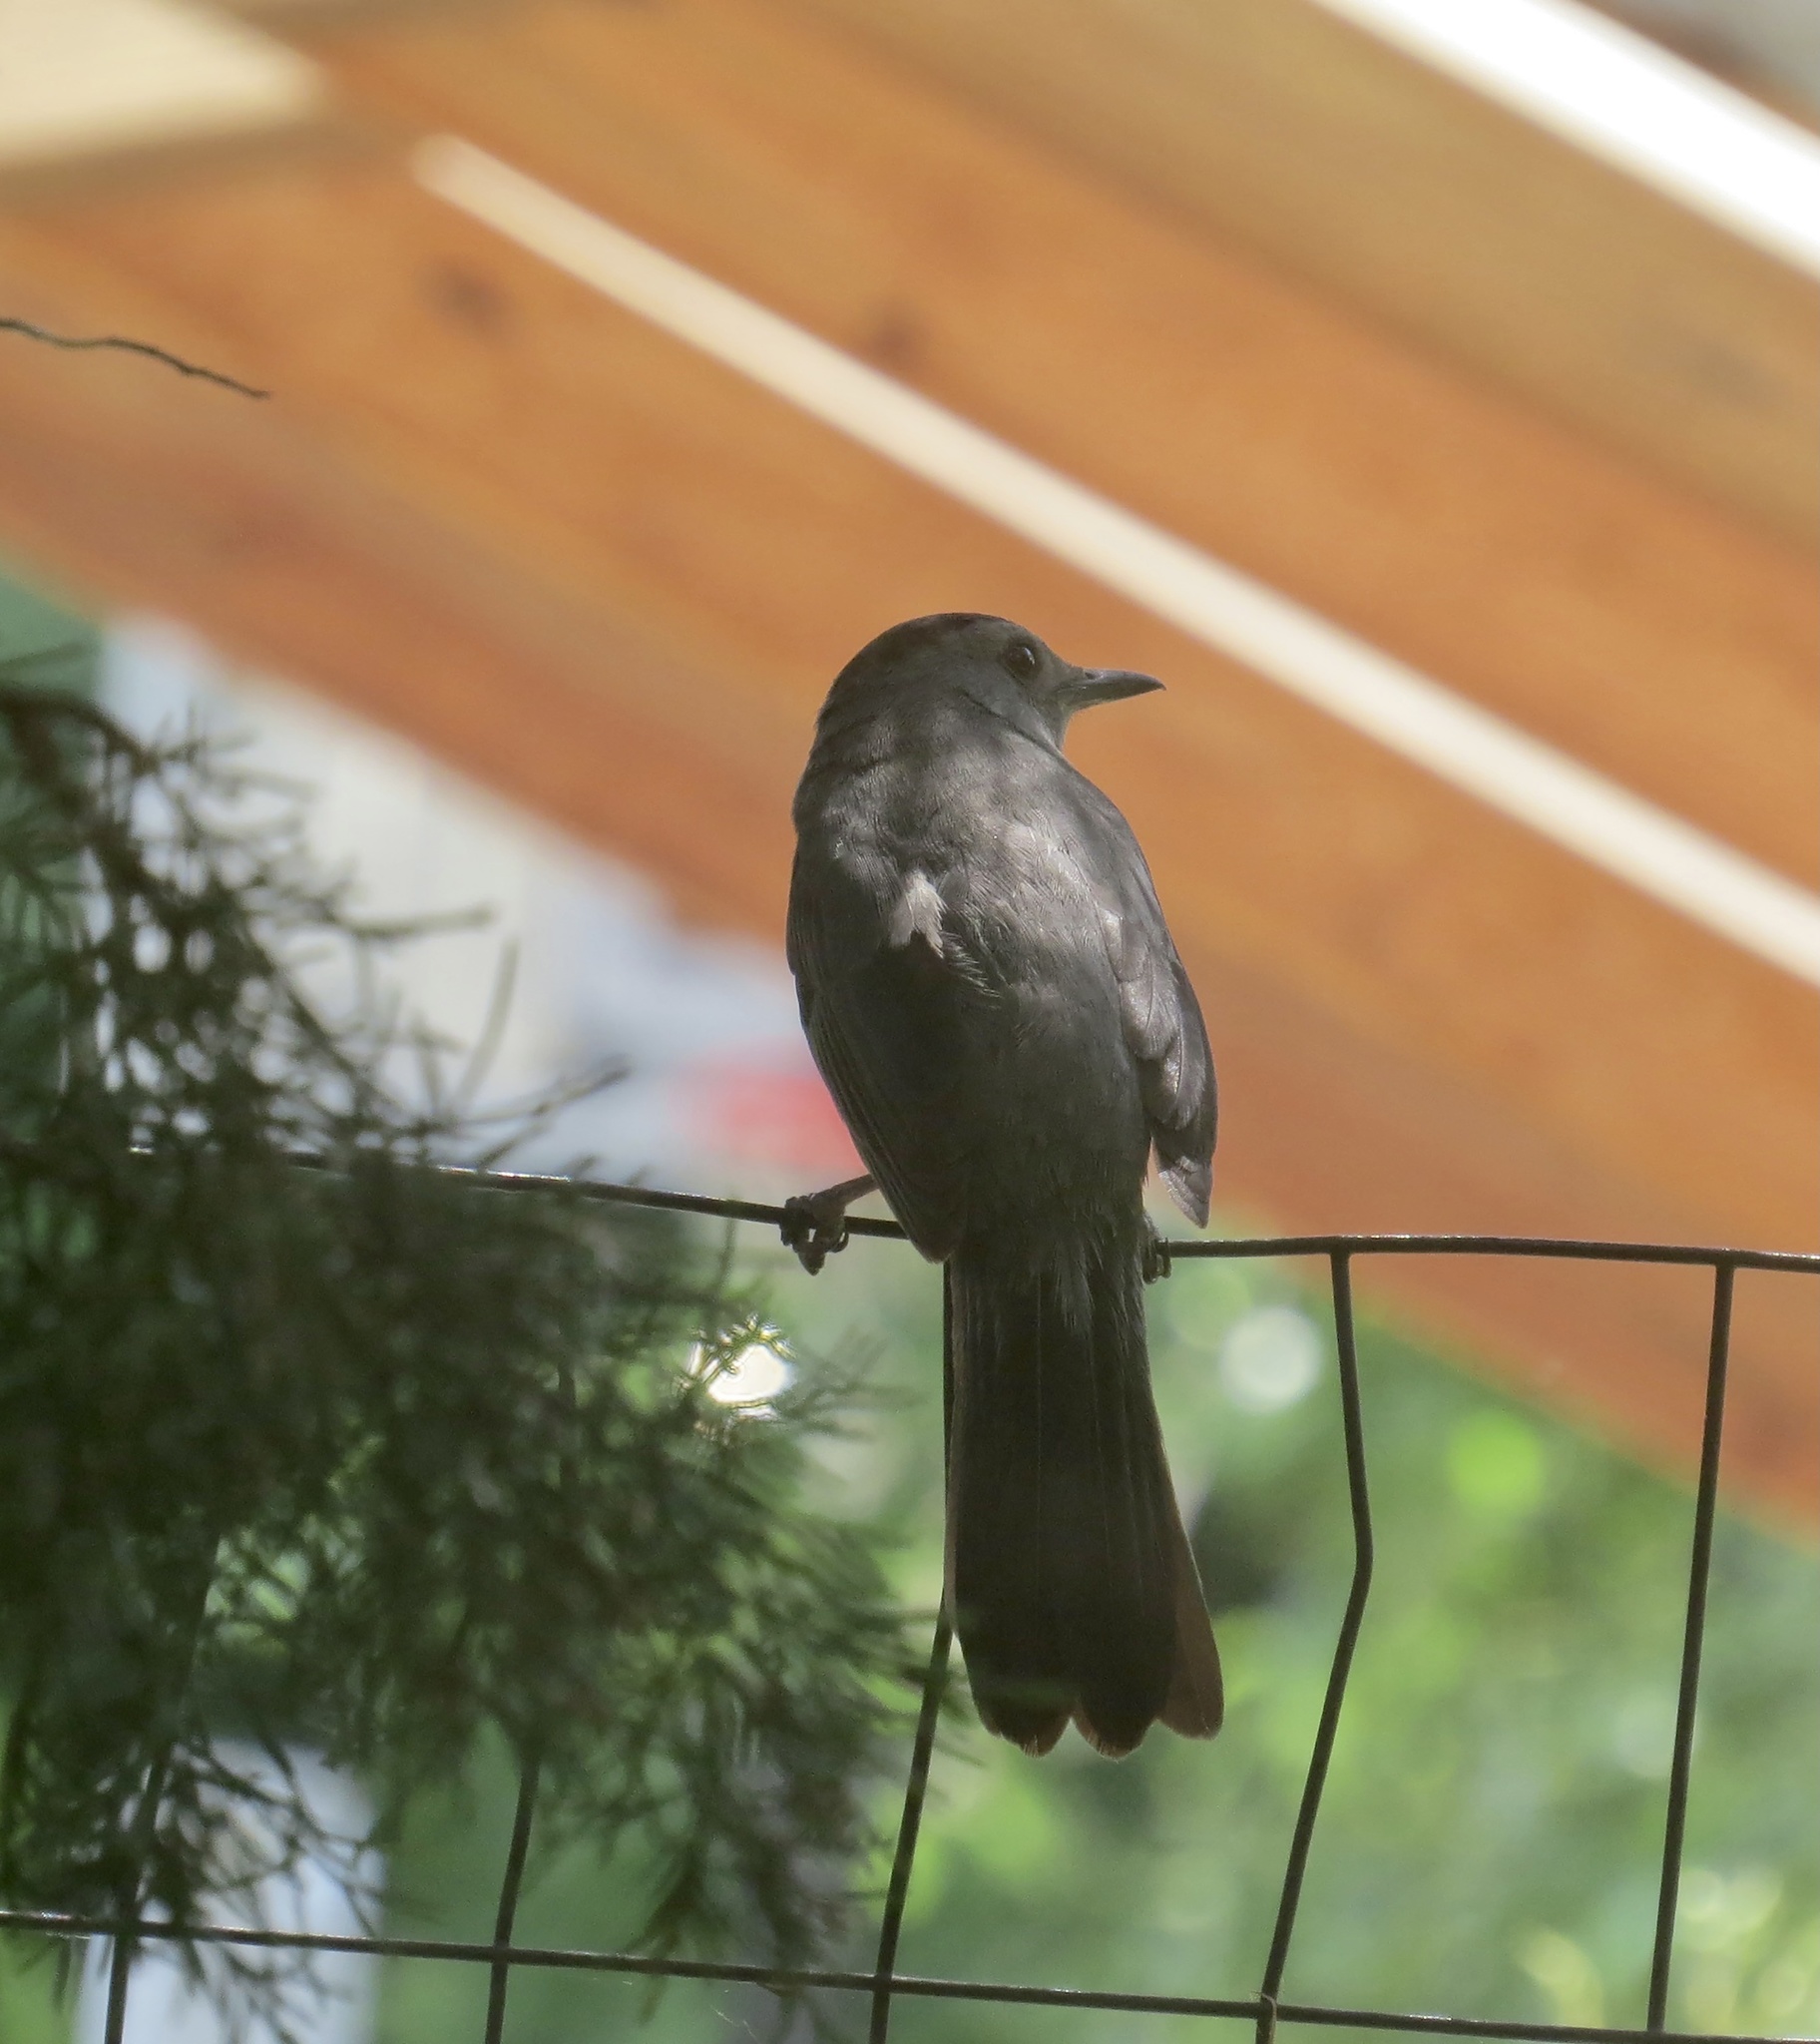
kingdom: Animalia
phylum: Chordata
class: Aves
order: Passeriformes
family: Mimidae
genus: Dumetella
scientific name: Dumetella carolinensis
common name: Gray catbird
